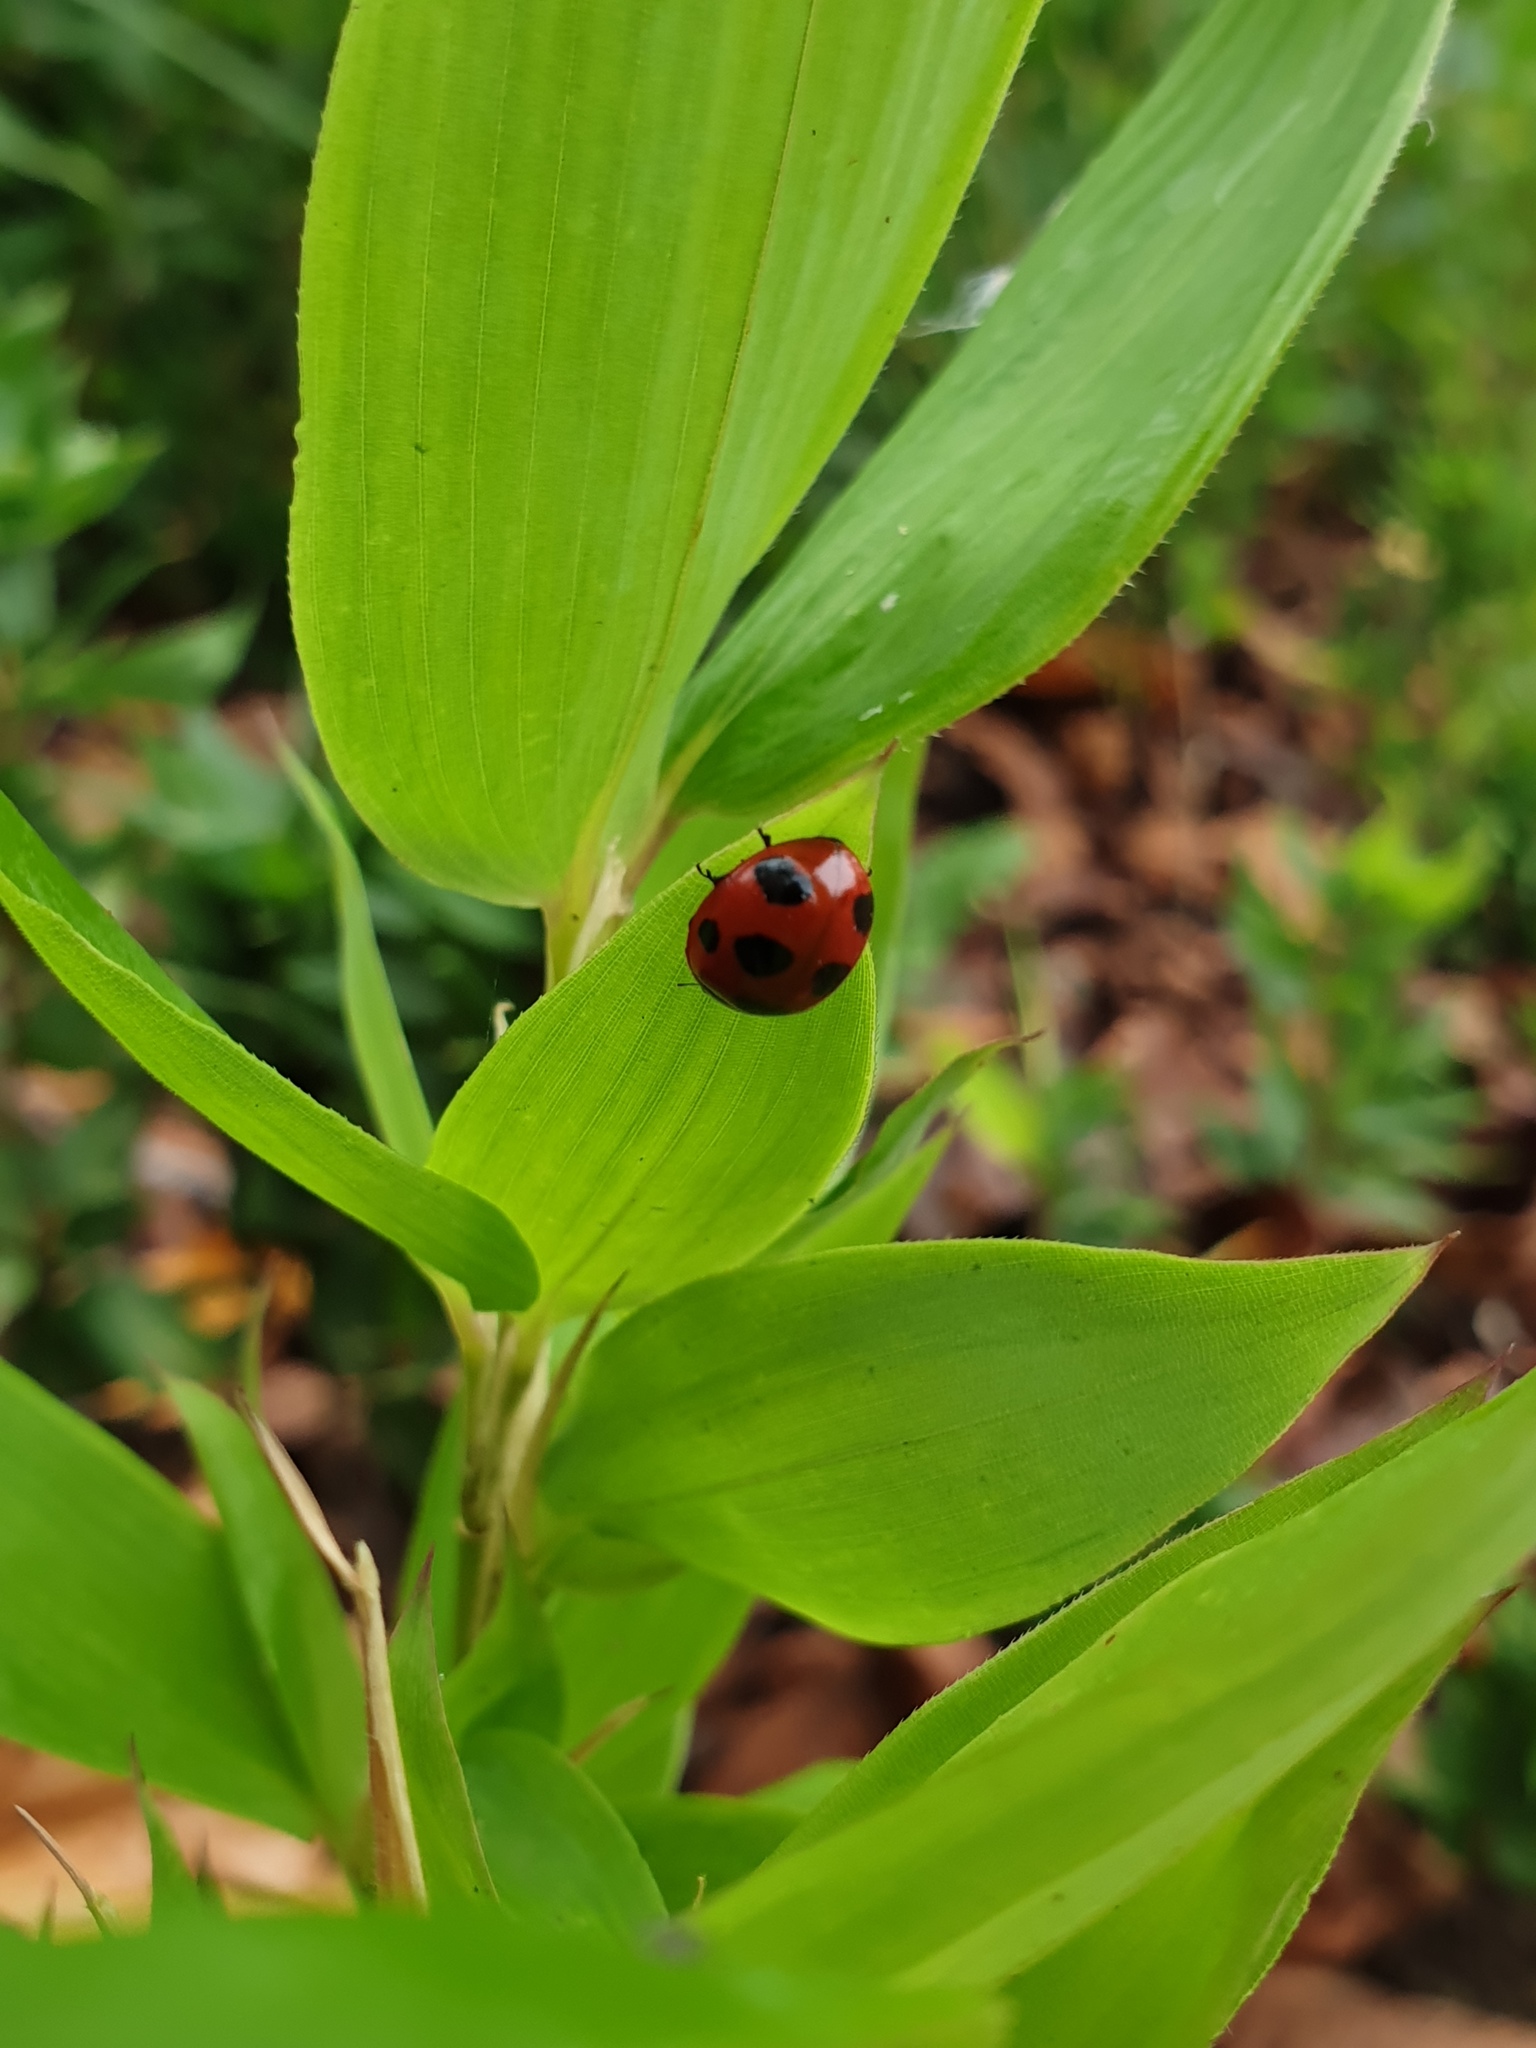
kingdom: Animalia
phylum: Arthropoda
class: Insecta
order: Coleoptera
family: Coccinellidae
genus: Coccinella
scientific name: Coccinella septempunctata
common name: Sevenspotted lady beetle
